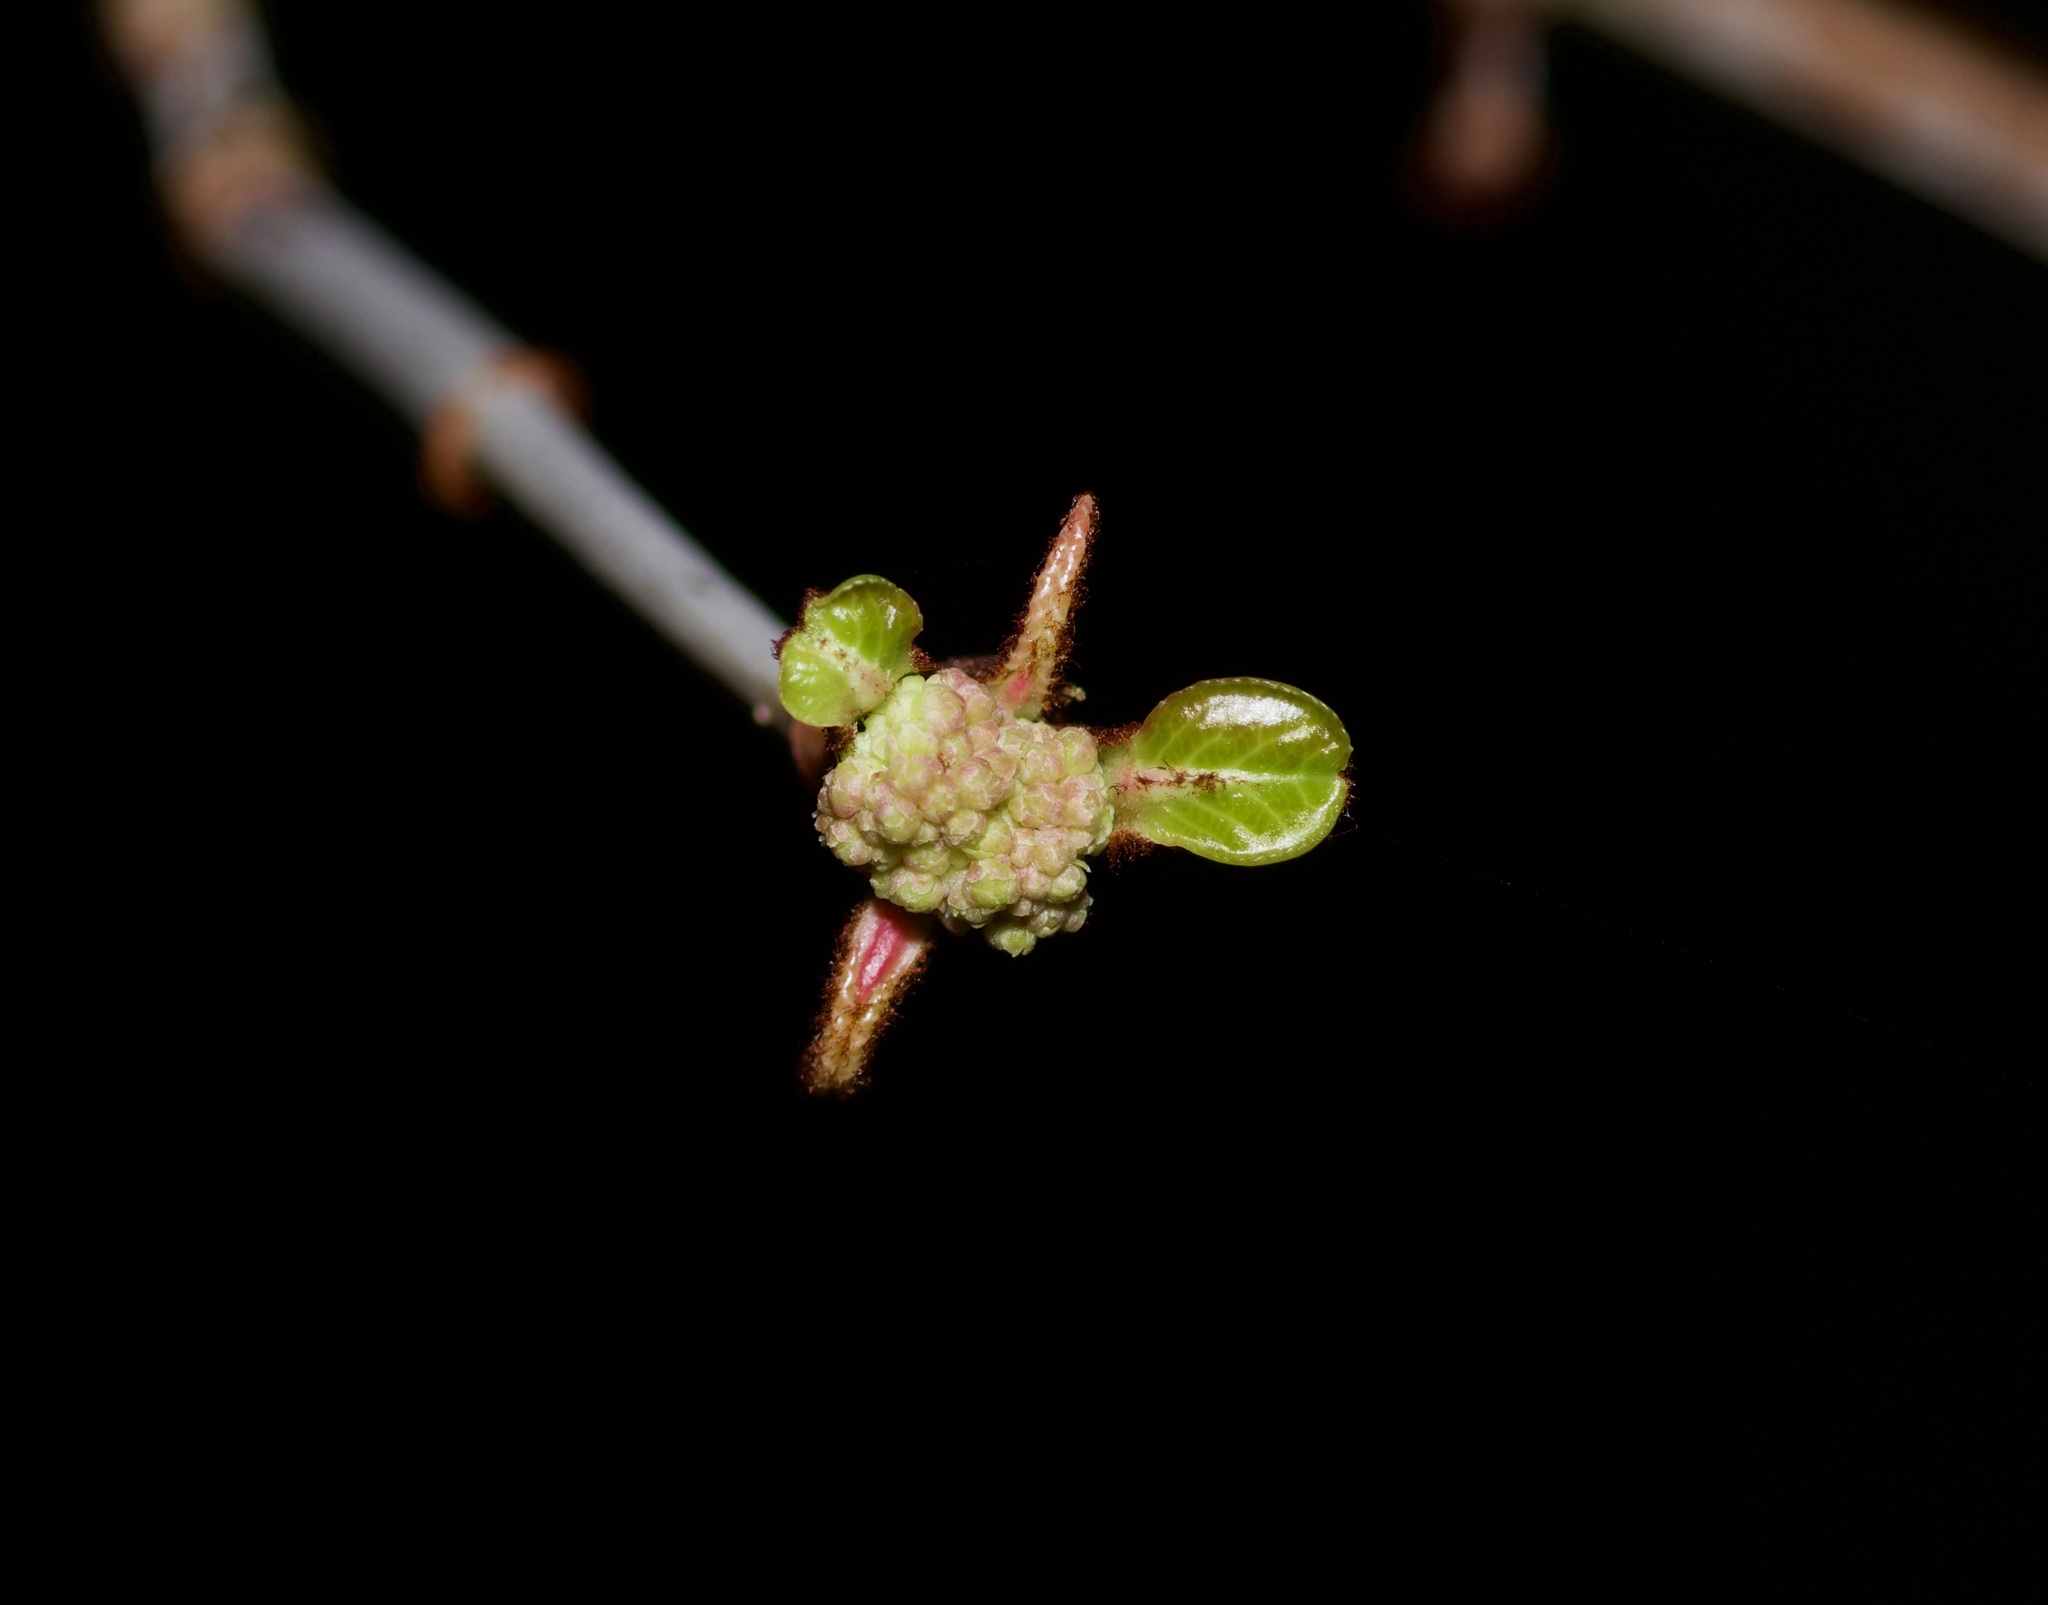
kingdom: Plantae
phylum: Tracheophyta
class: Magnoliopsida
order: Dipsacales
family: Viburnaceae
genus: Viburnum
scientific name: Viburnum rufidulum
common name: Blue haw
